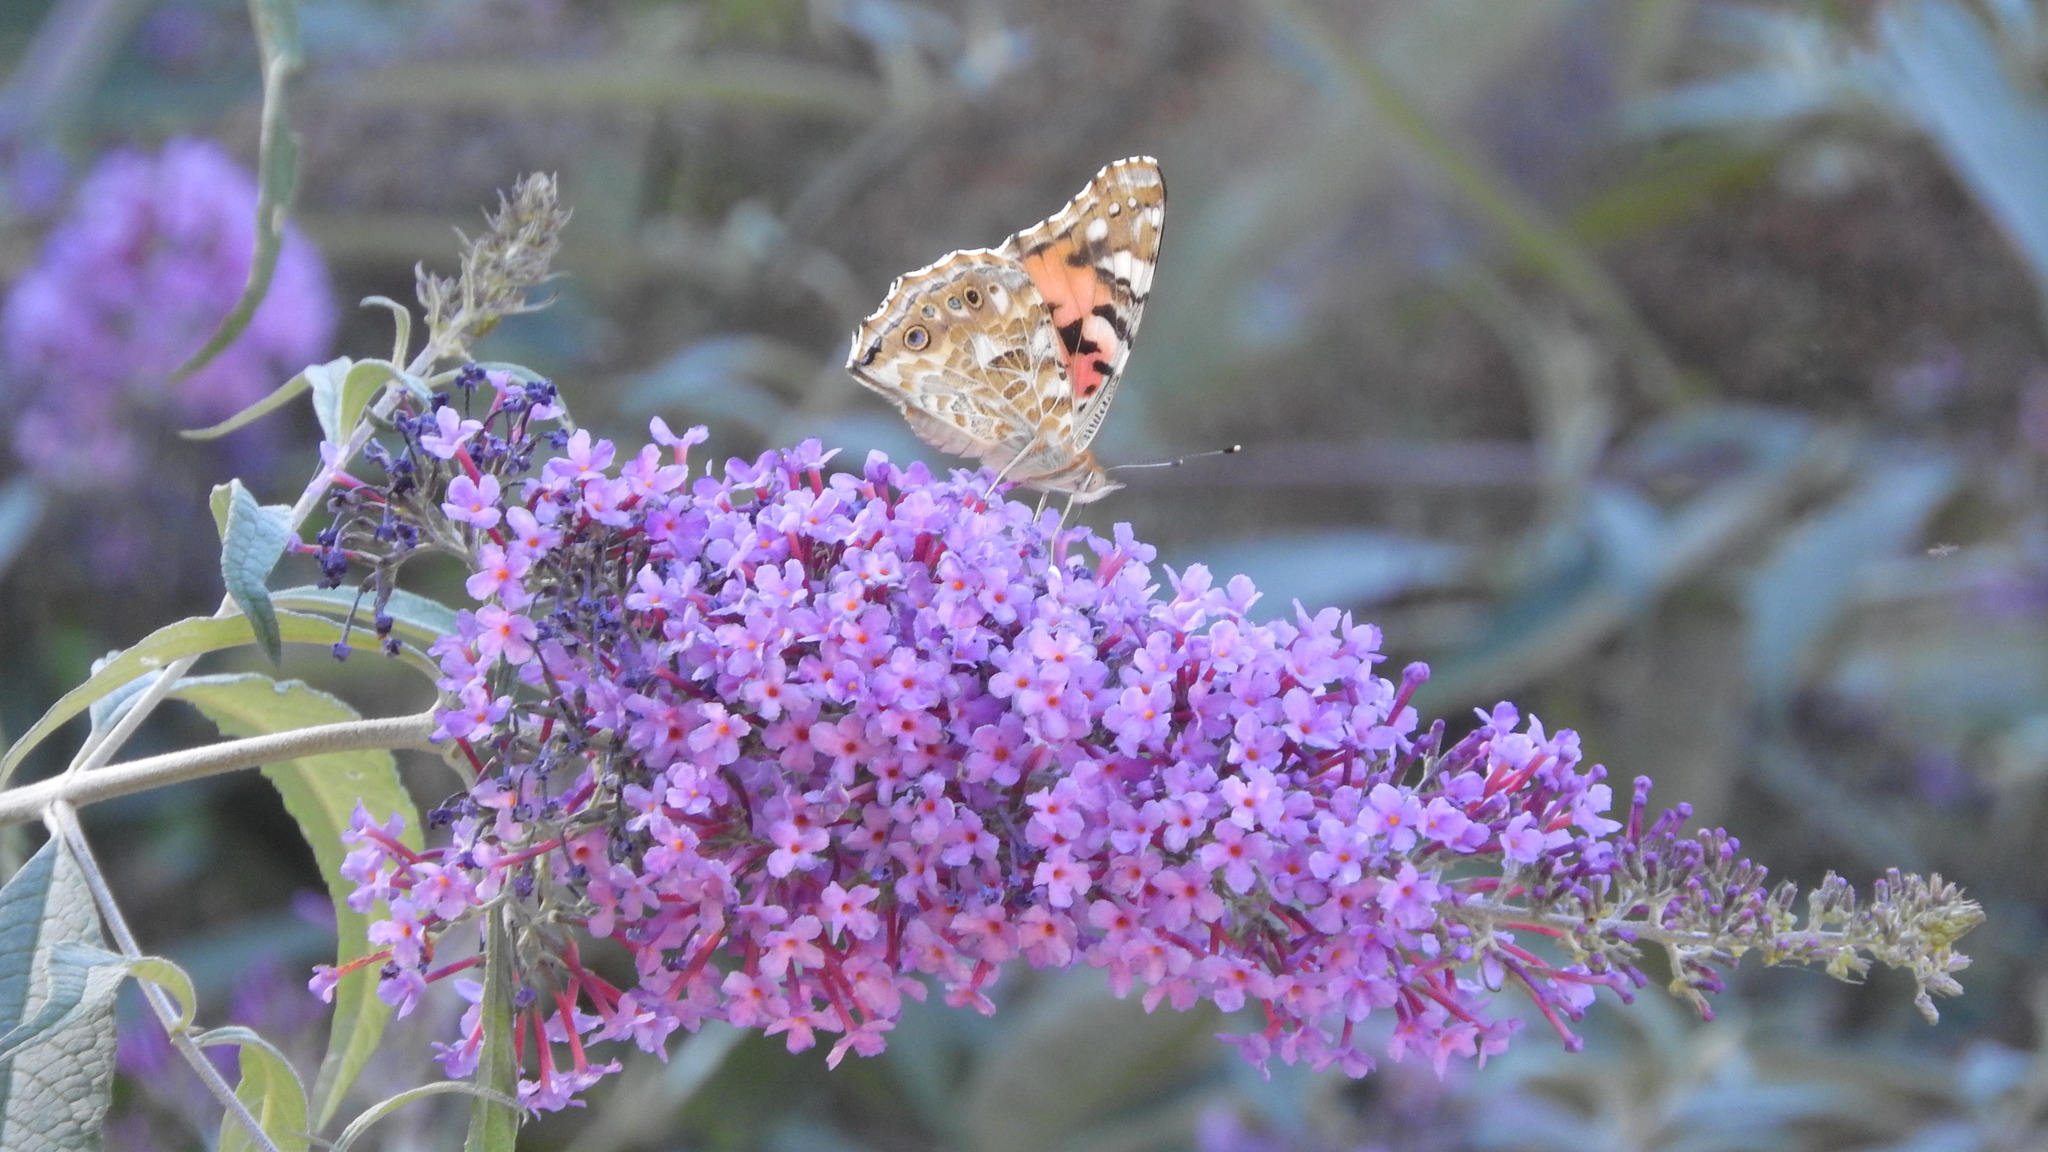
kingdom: Animalia
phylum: Arthropoda
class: Insecta
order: Lepidoptera
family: Nymphalidae
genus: Vanessa
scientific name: Vanessa cardui
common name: Painted lady
